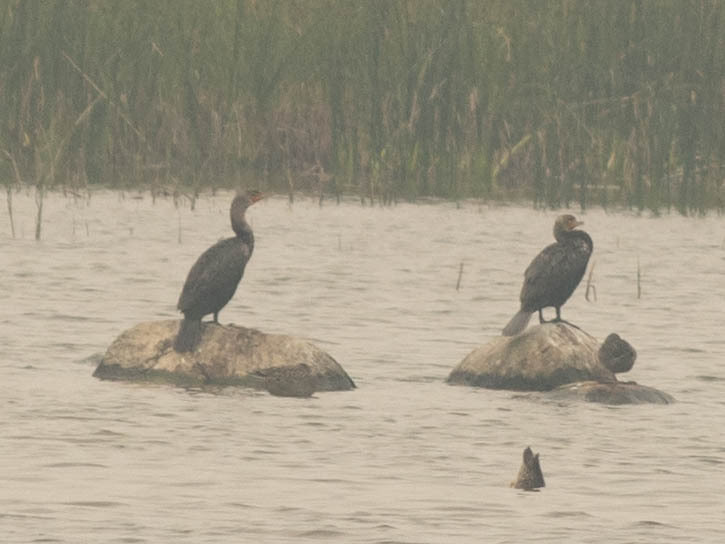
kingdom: Animalia
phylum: Chordata
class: Aves
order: Suliformes
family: Phalacrocoracidae
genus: Phalacrocorax
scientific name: Phalacrocorax auritus
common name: Double-crested cormorant
